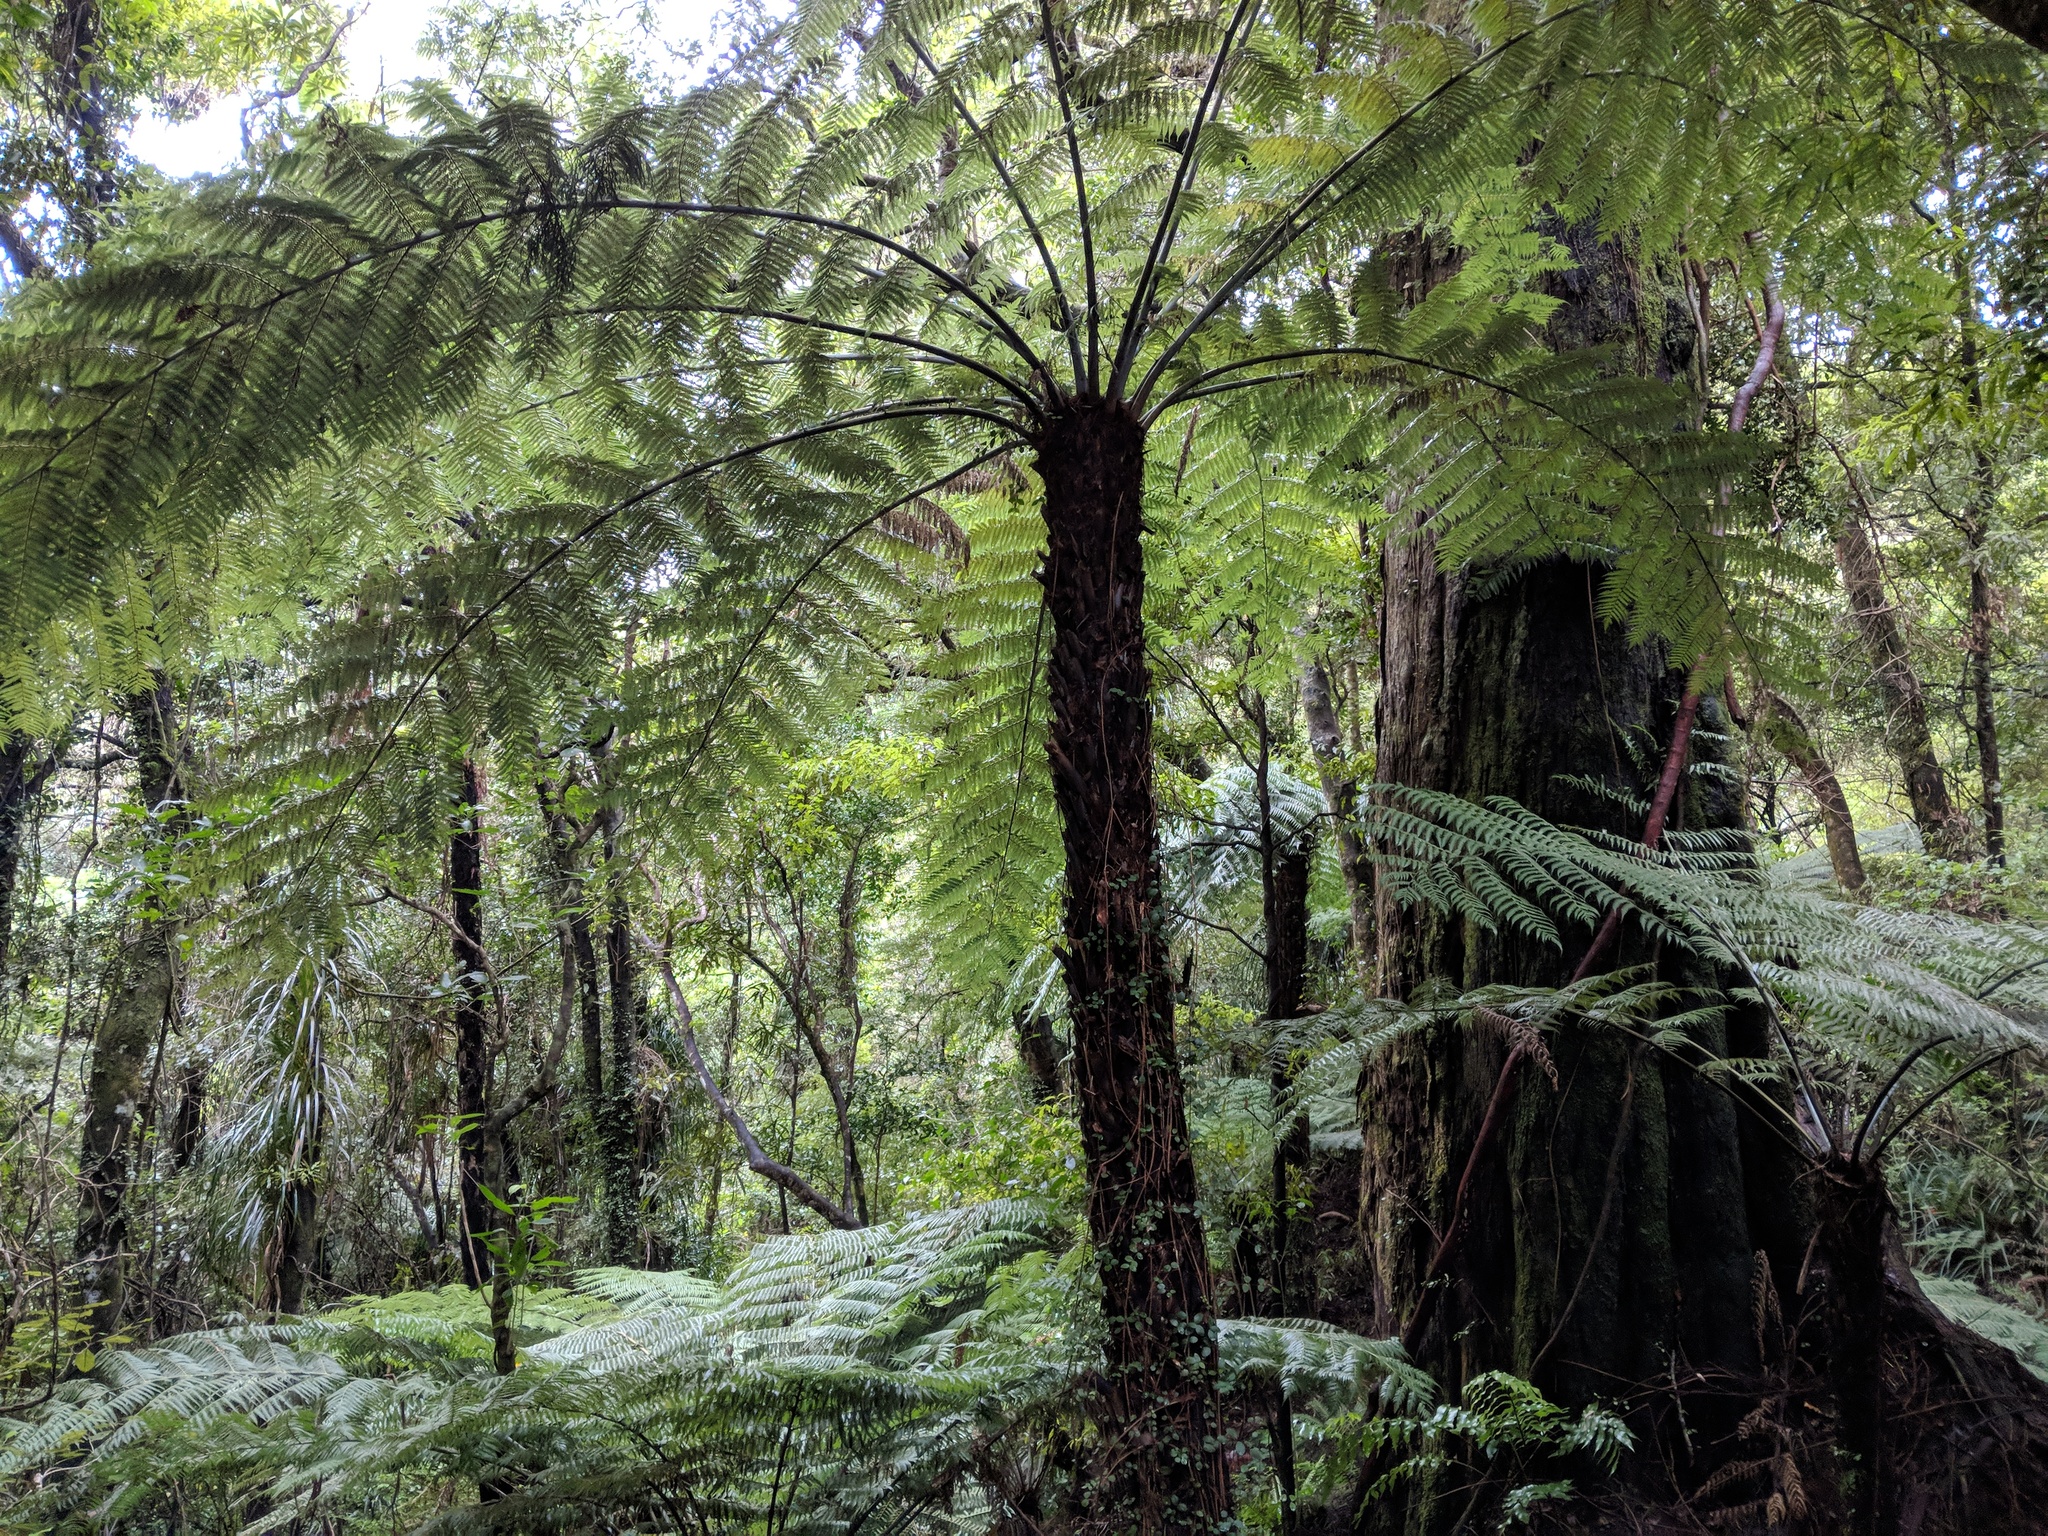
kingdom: Plantae
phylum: Tracheophyta
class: Polypodiopsida
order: Cyatheales
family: Cyatheaceae
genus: Alsophila
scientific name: Alsophila dealbata
